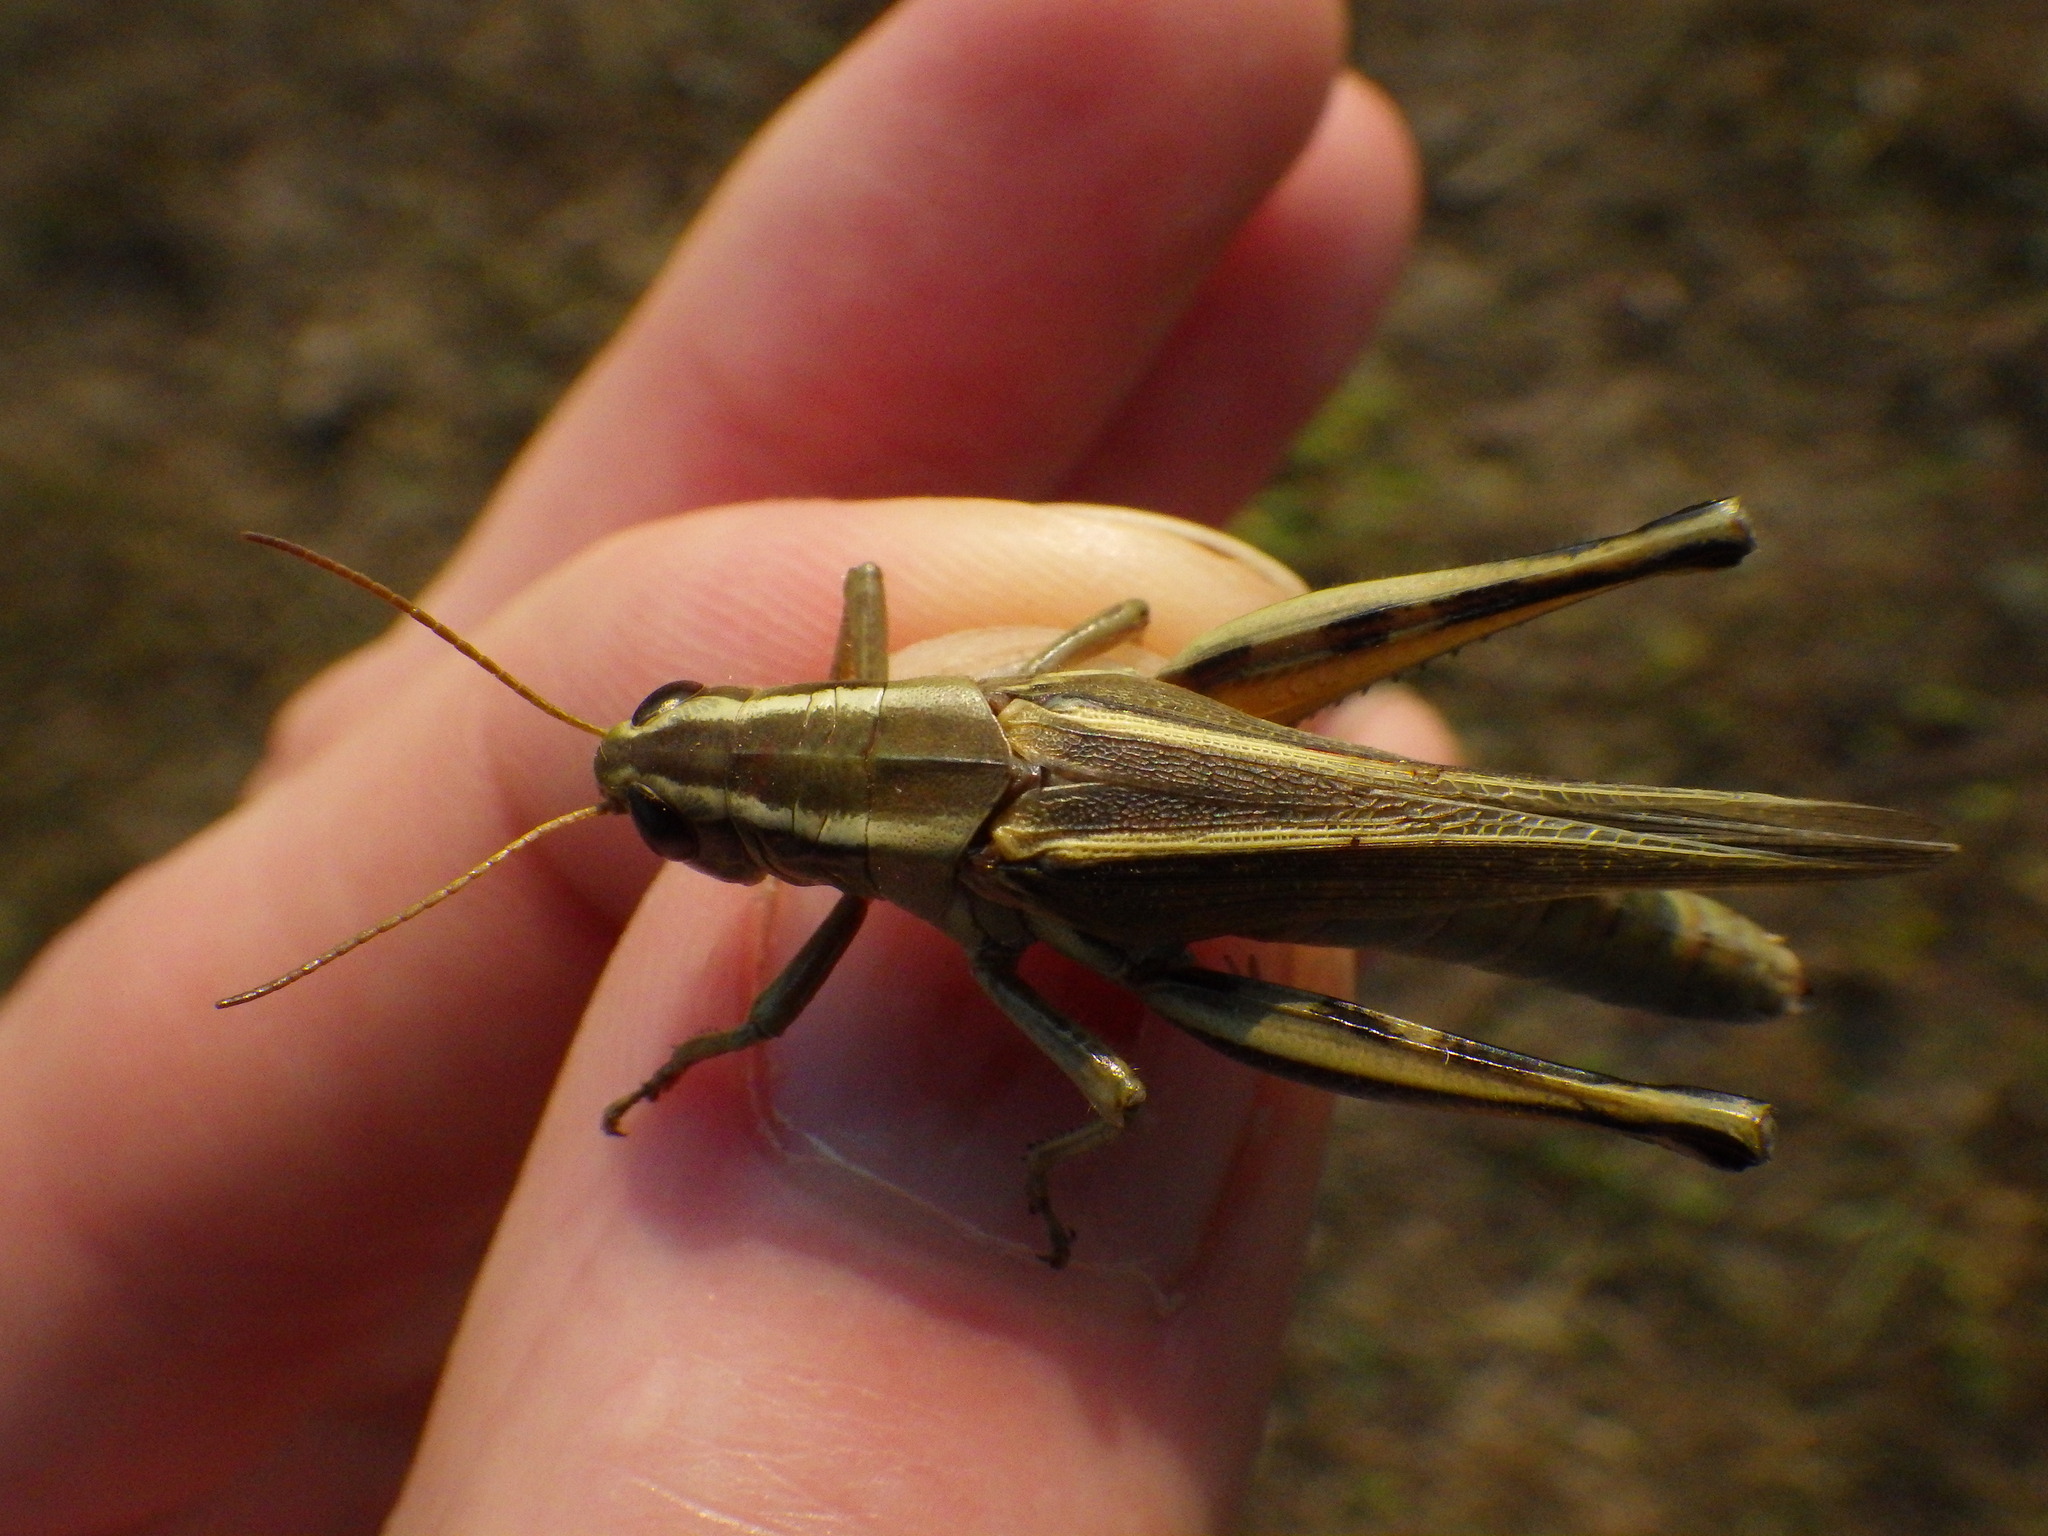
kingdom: Animalia
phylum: Arthropoda
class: Insecta
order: Orthoptera
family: Acrididae
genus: Melanoplus
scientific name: Melanoplus bivittatus
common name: Two-striped grasshopper
